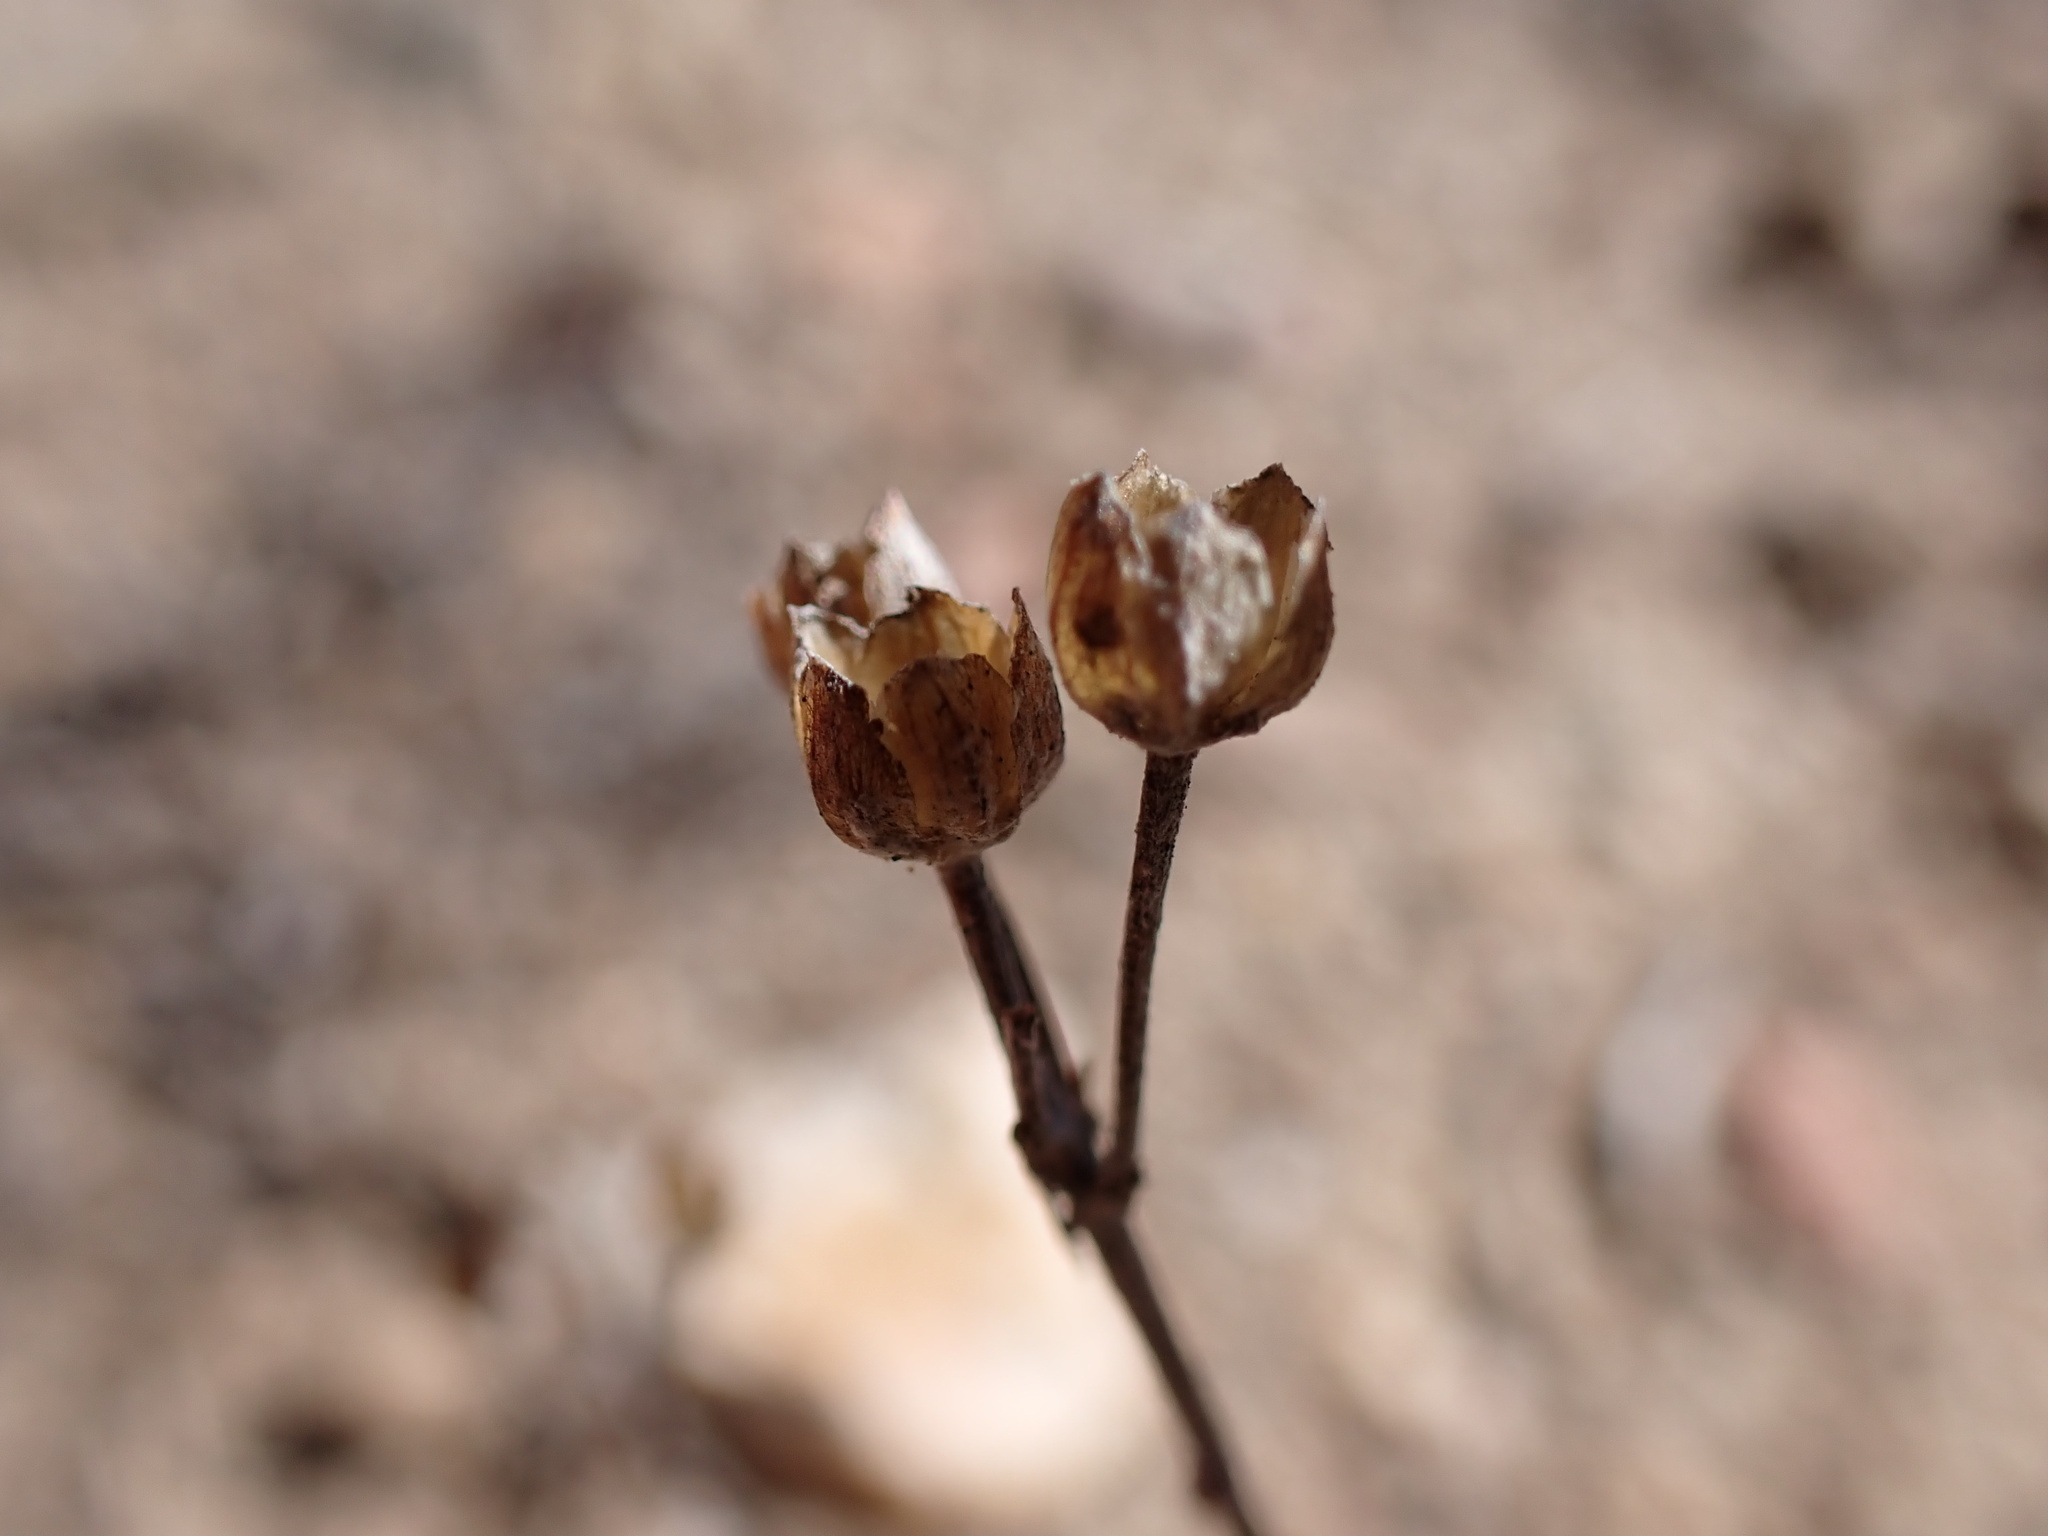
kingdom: Plantae
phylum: Tracheophyta
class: Magnoliopsida
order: Asterales
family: Asteraceae
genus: Eriophyllum
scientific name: Eriophyllum confertiflorum
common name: Golden-yarrow
